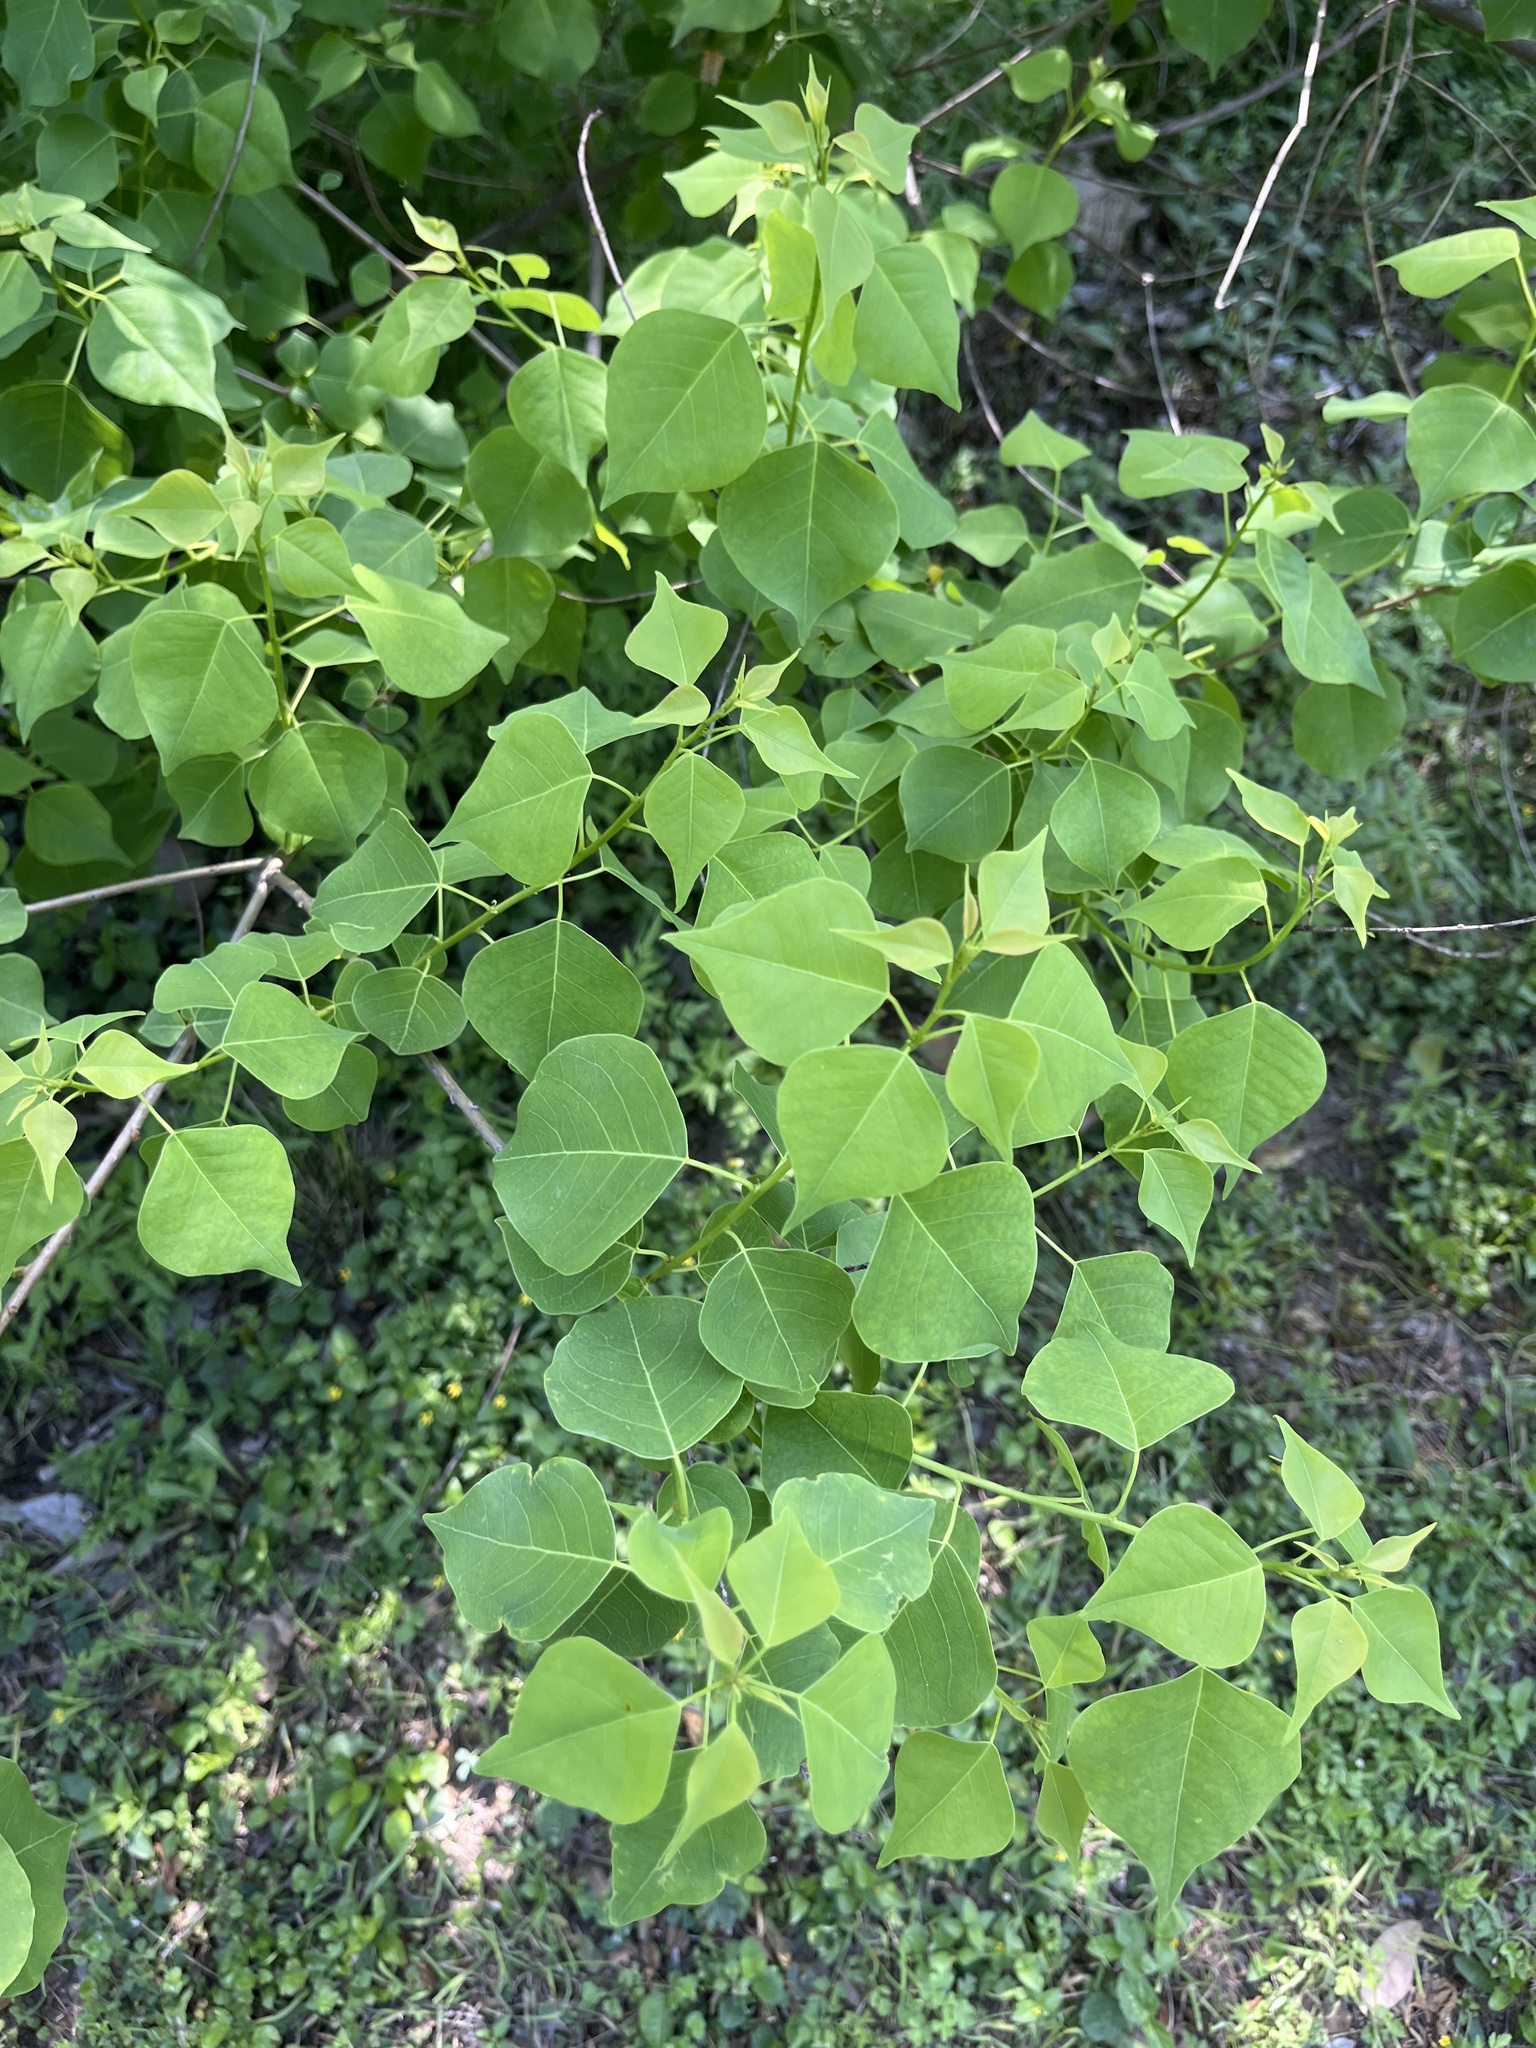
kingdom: Plantae
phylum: Tracheophyta
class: Magnoliopsida
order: Malpighiales
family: Euphorbiaceae
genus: Triadica
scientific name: Triadica sebifera
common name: Chinese tallow
